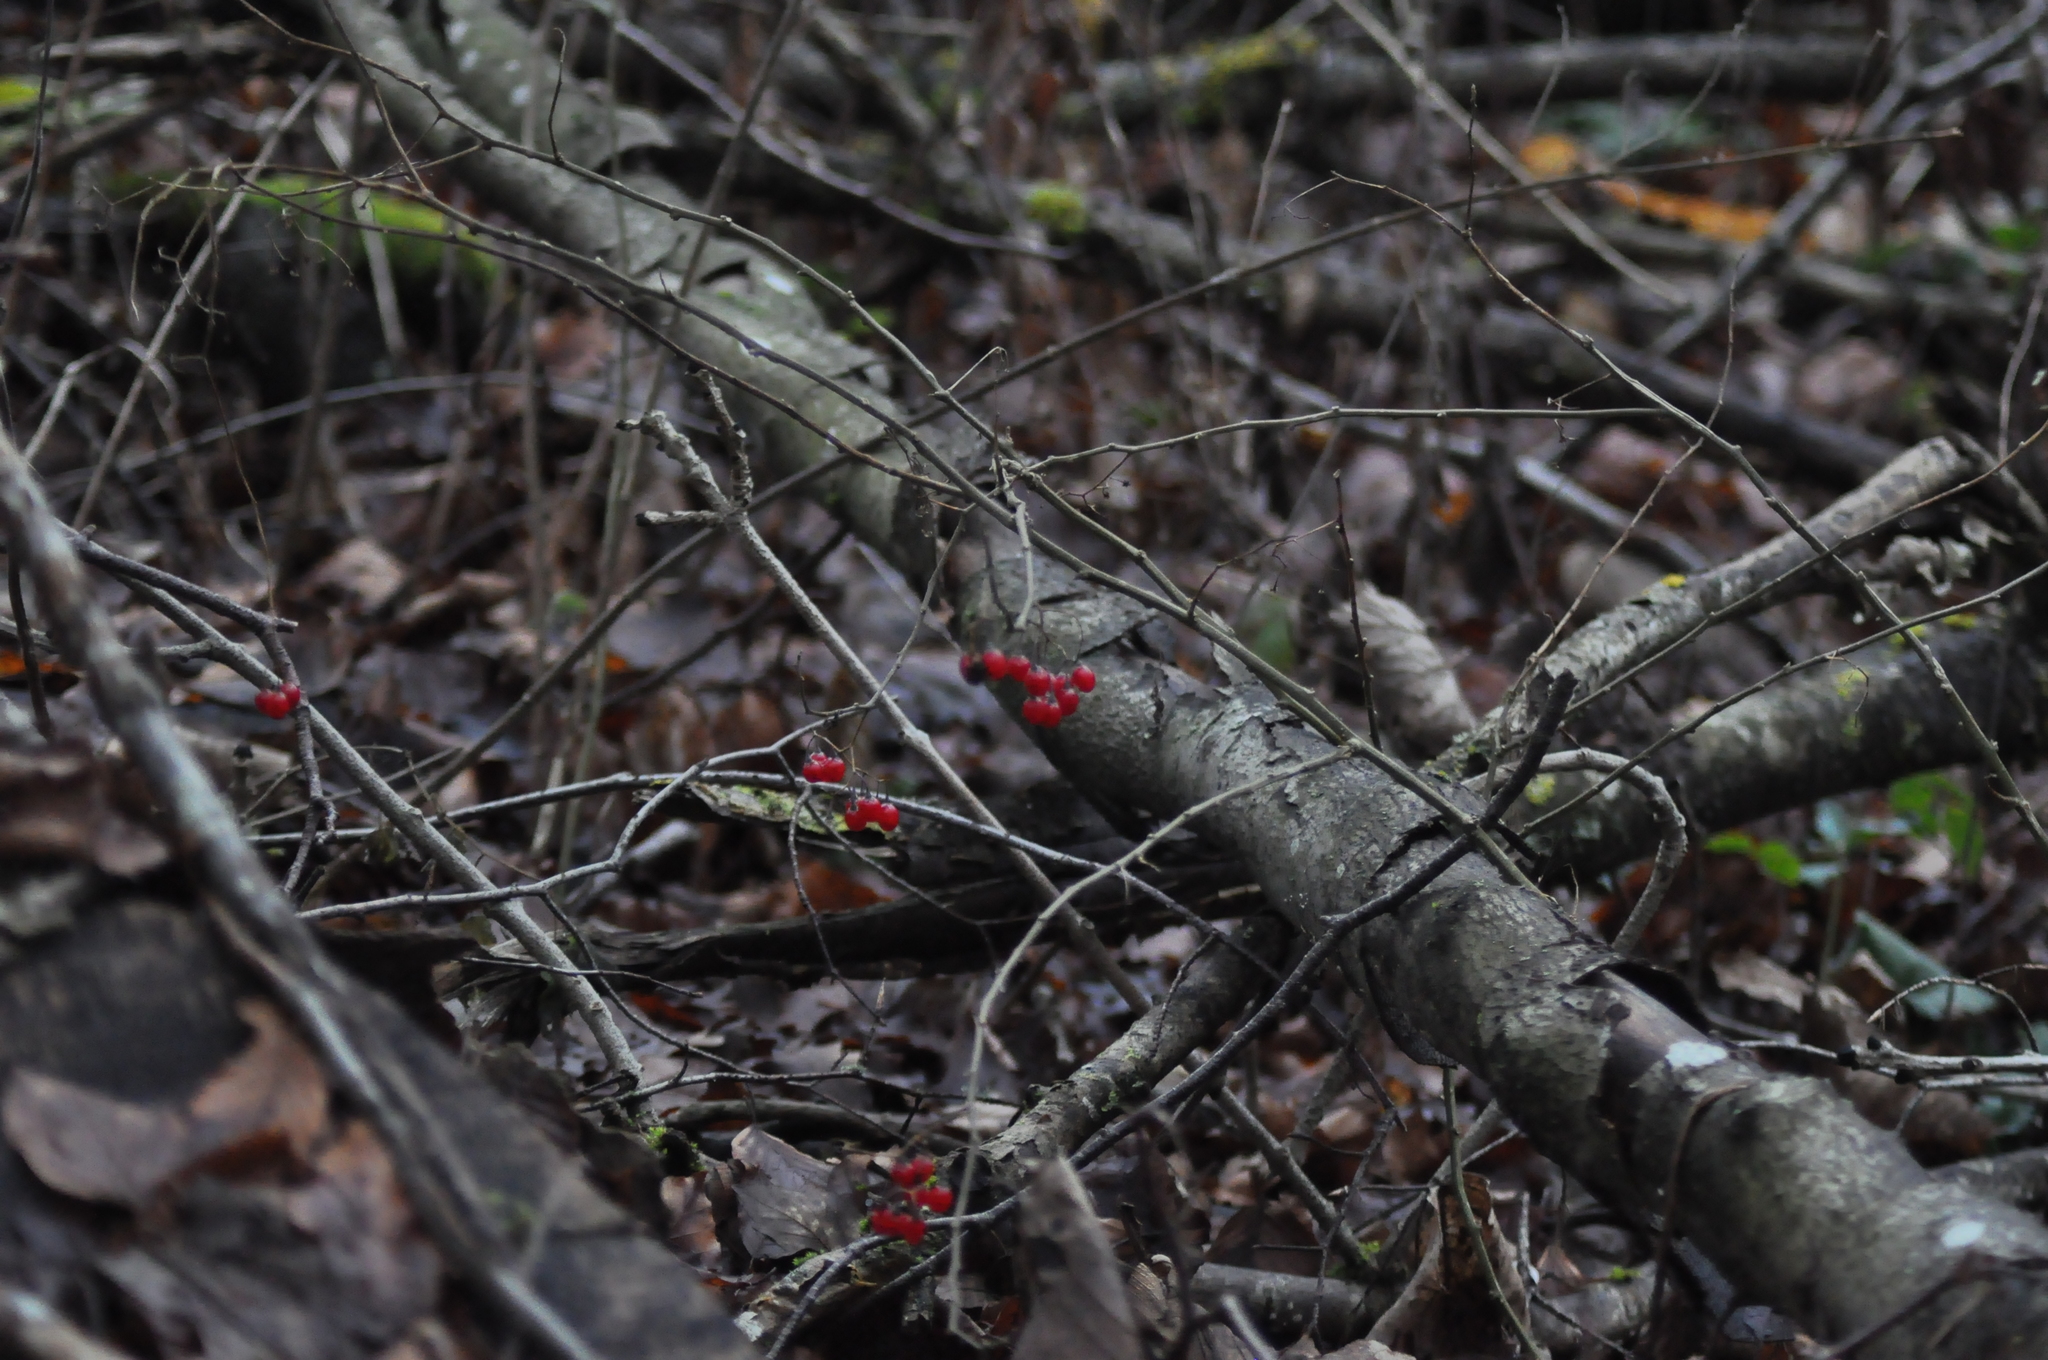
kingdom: Plantae
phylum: Tracheophyta
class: Magnoliopsida
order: Solanales
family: Solanaceae
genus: Solanum
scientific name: Solanum dulcamara
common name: Climbing nightshade
